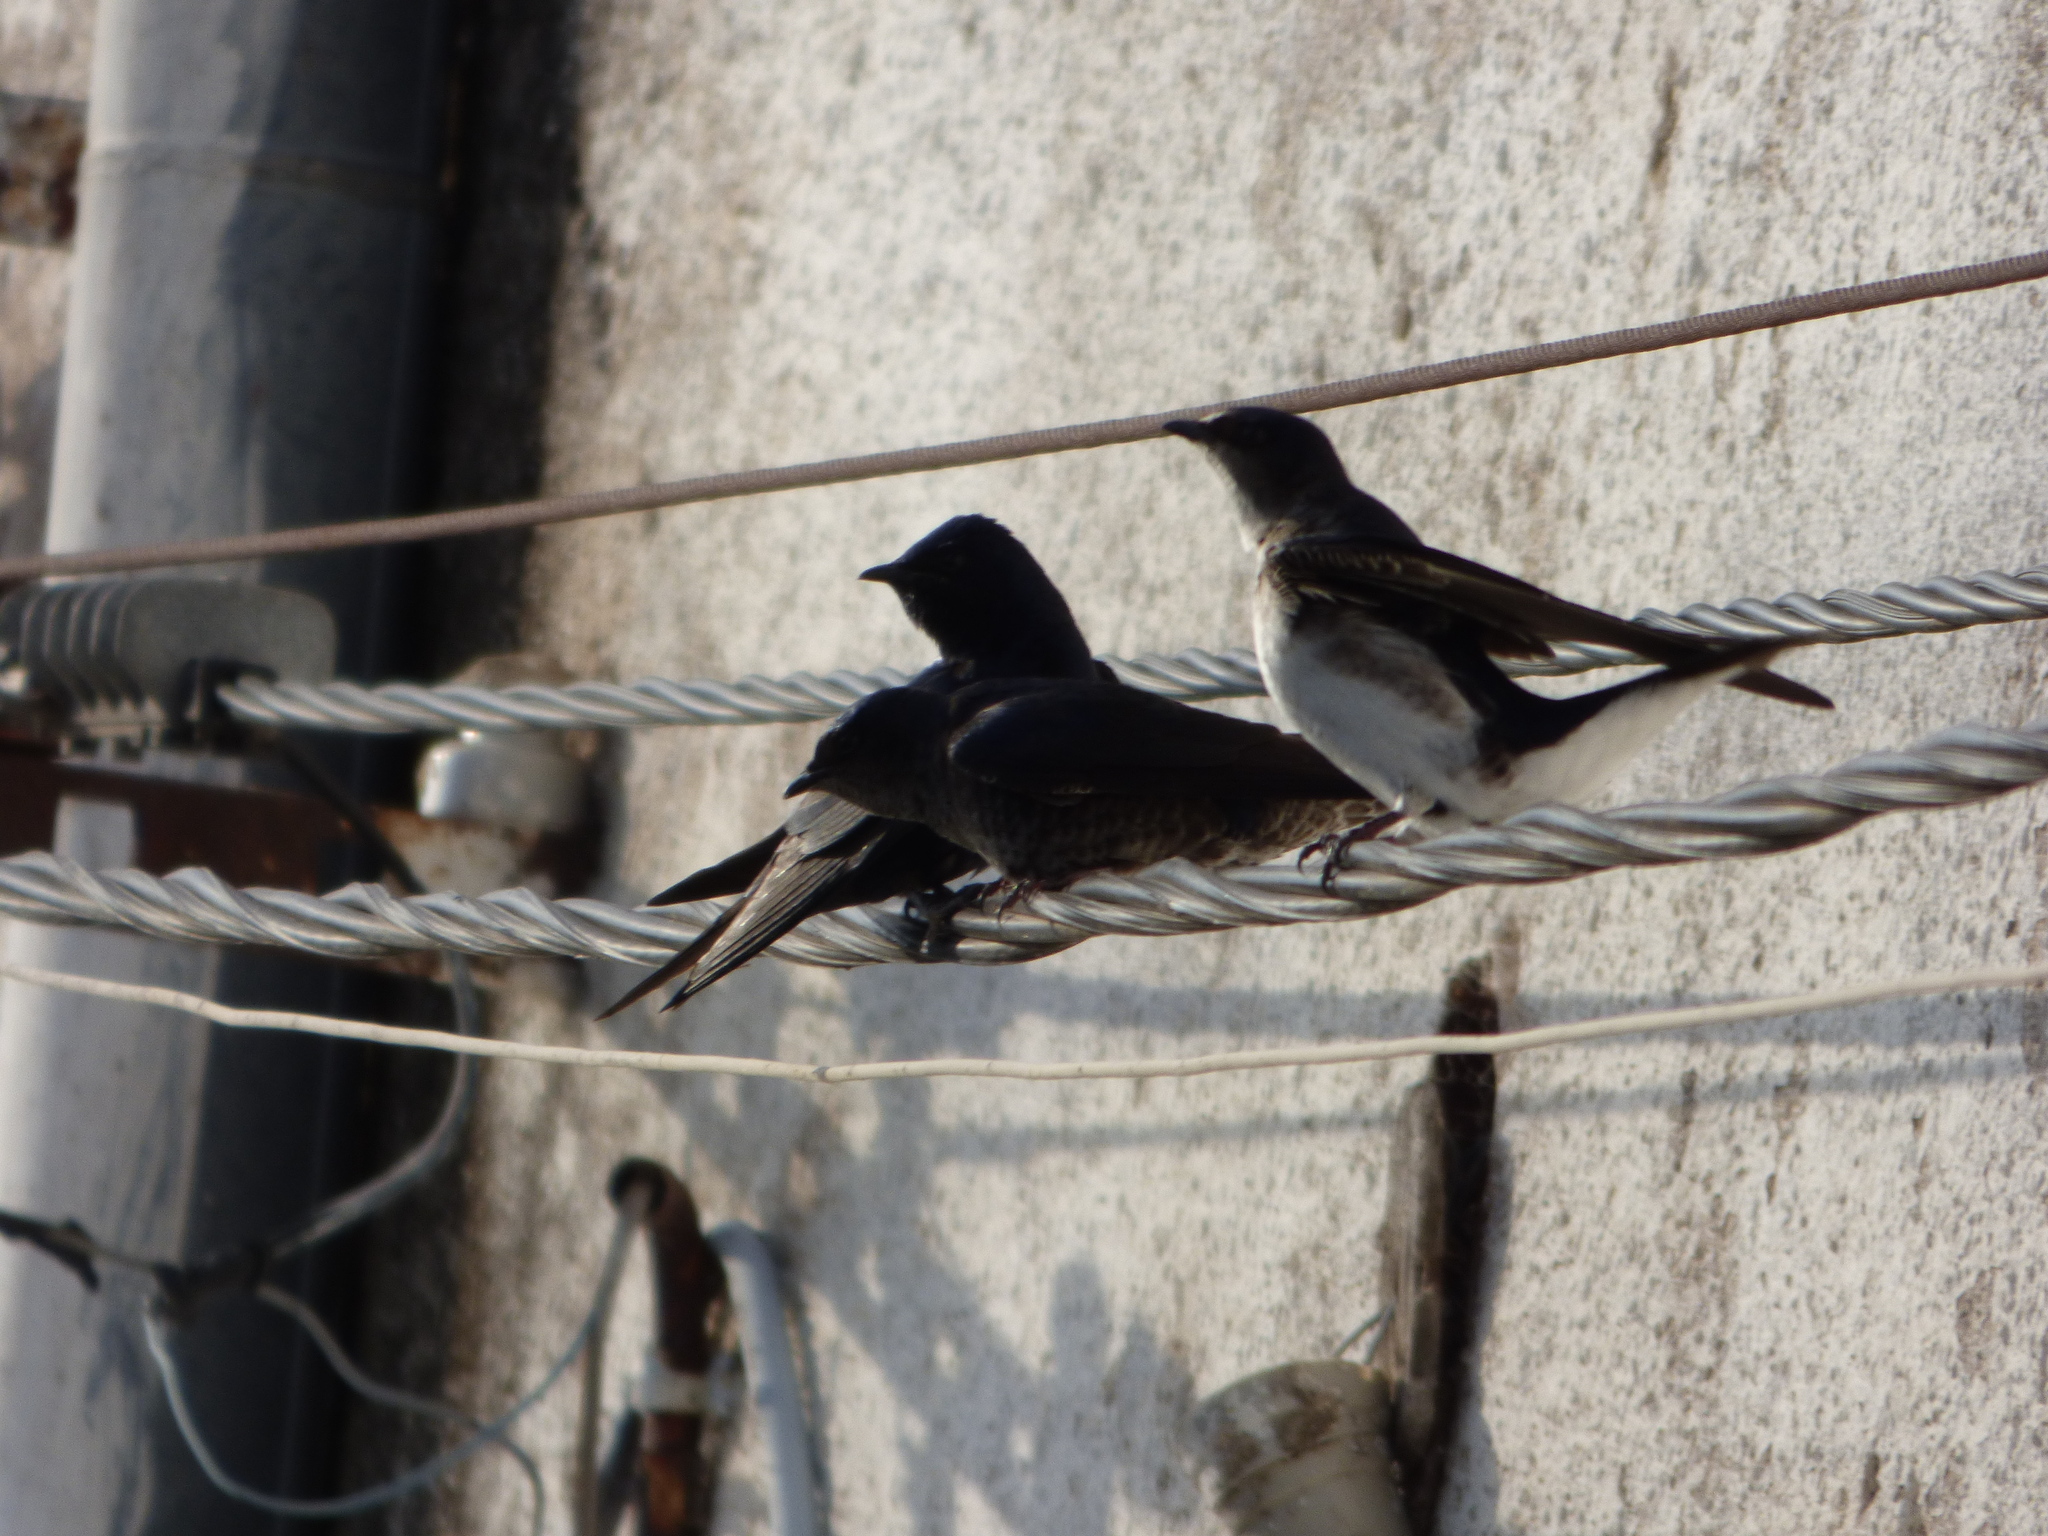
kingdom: Animalia
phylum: Chordata
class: Aves
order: Passeriformes
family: Hirundinidae
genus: Progne
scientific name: Progne chalybea
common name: Grey-breasted martin
